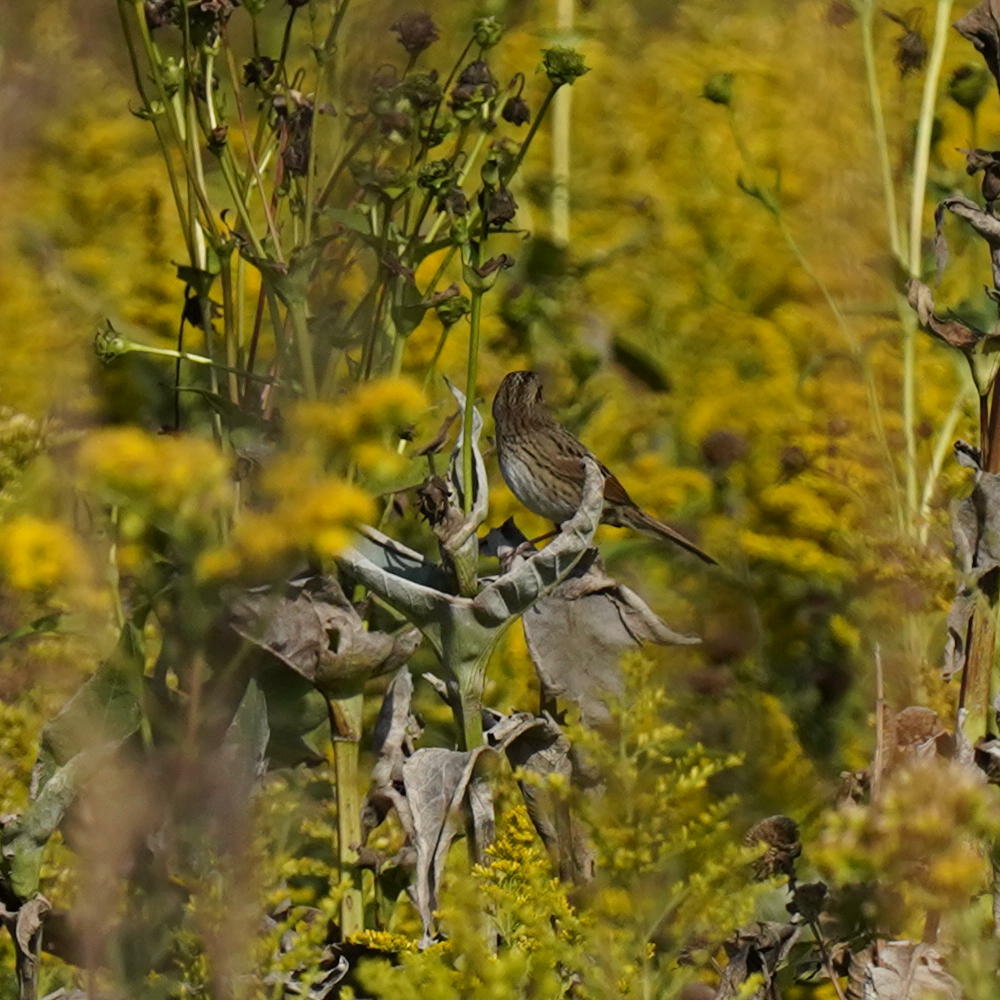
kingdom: Animalia
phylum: Chordata
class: Aves
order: Passeriformes
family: Passerellidae
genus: Melospiza
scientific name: Melospiza lincolnii
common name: Lincoln's sparrow
